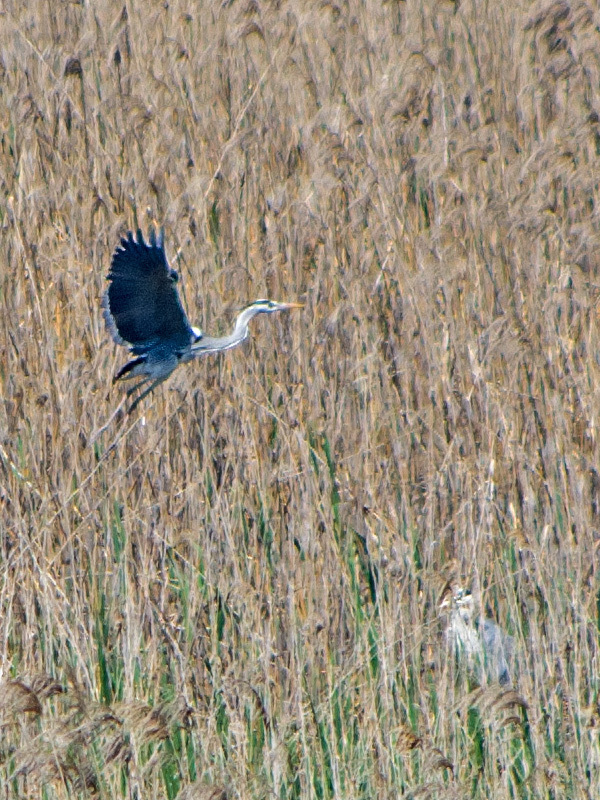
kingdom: Animalia
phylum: Chordata
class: Aves
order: Pelecaniformes
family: Ardeidae
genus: Ardea
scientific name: Ardea cinerea
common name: Grey heron
